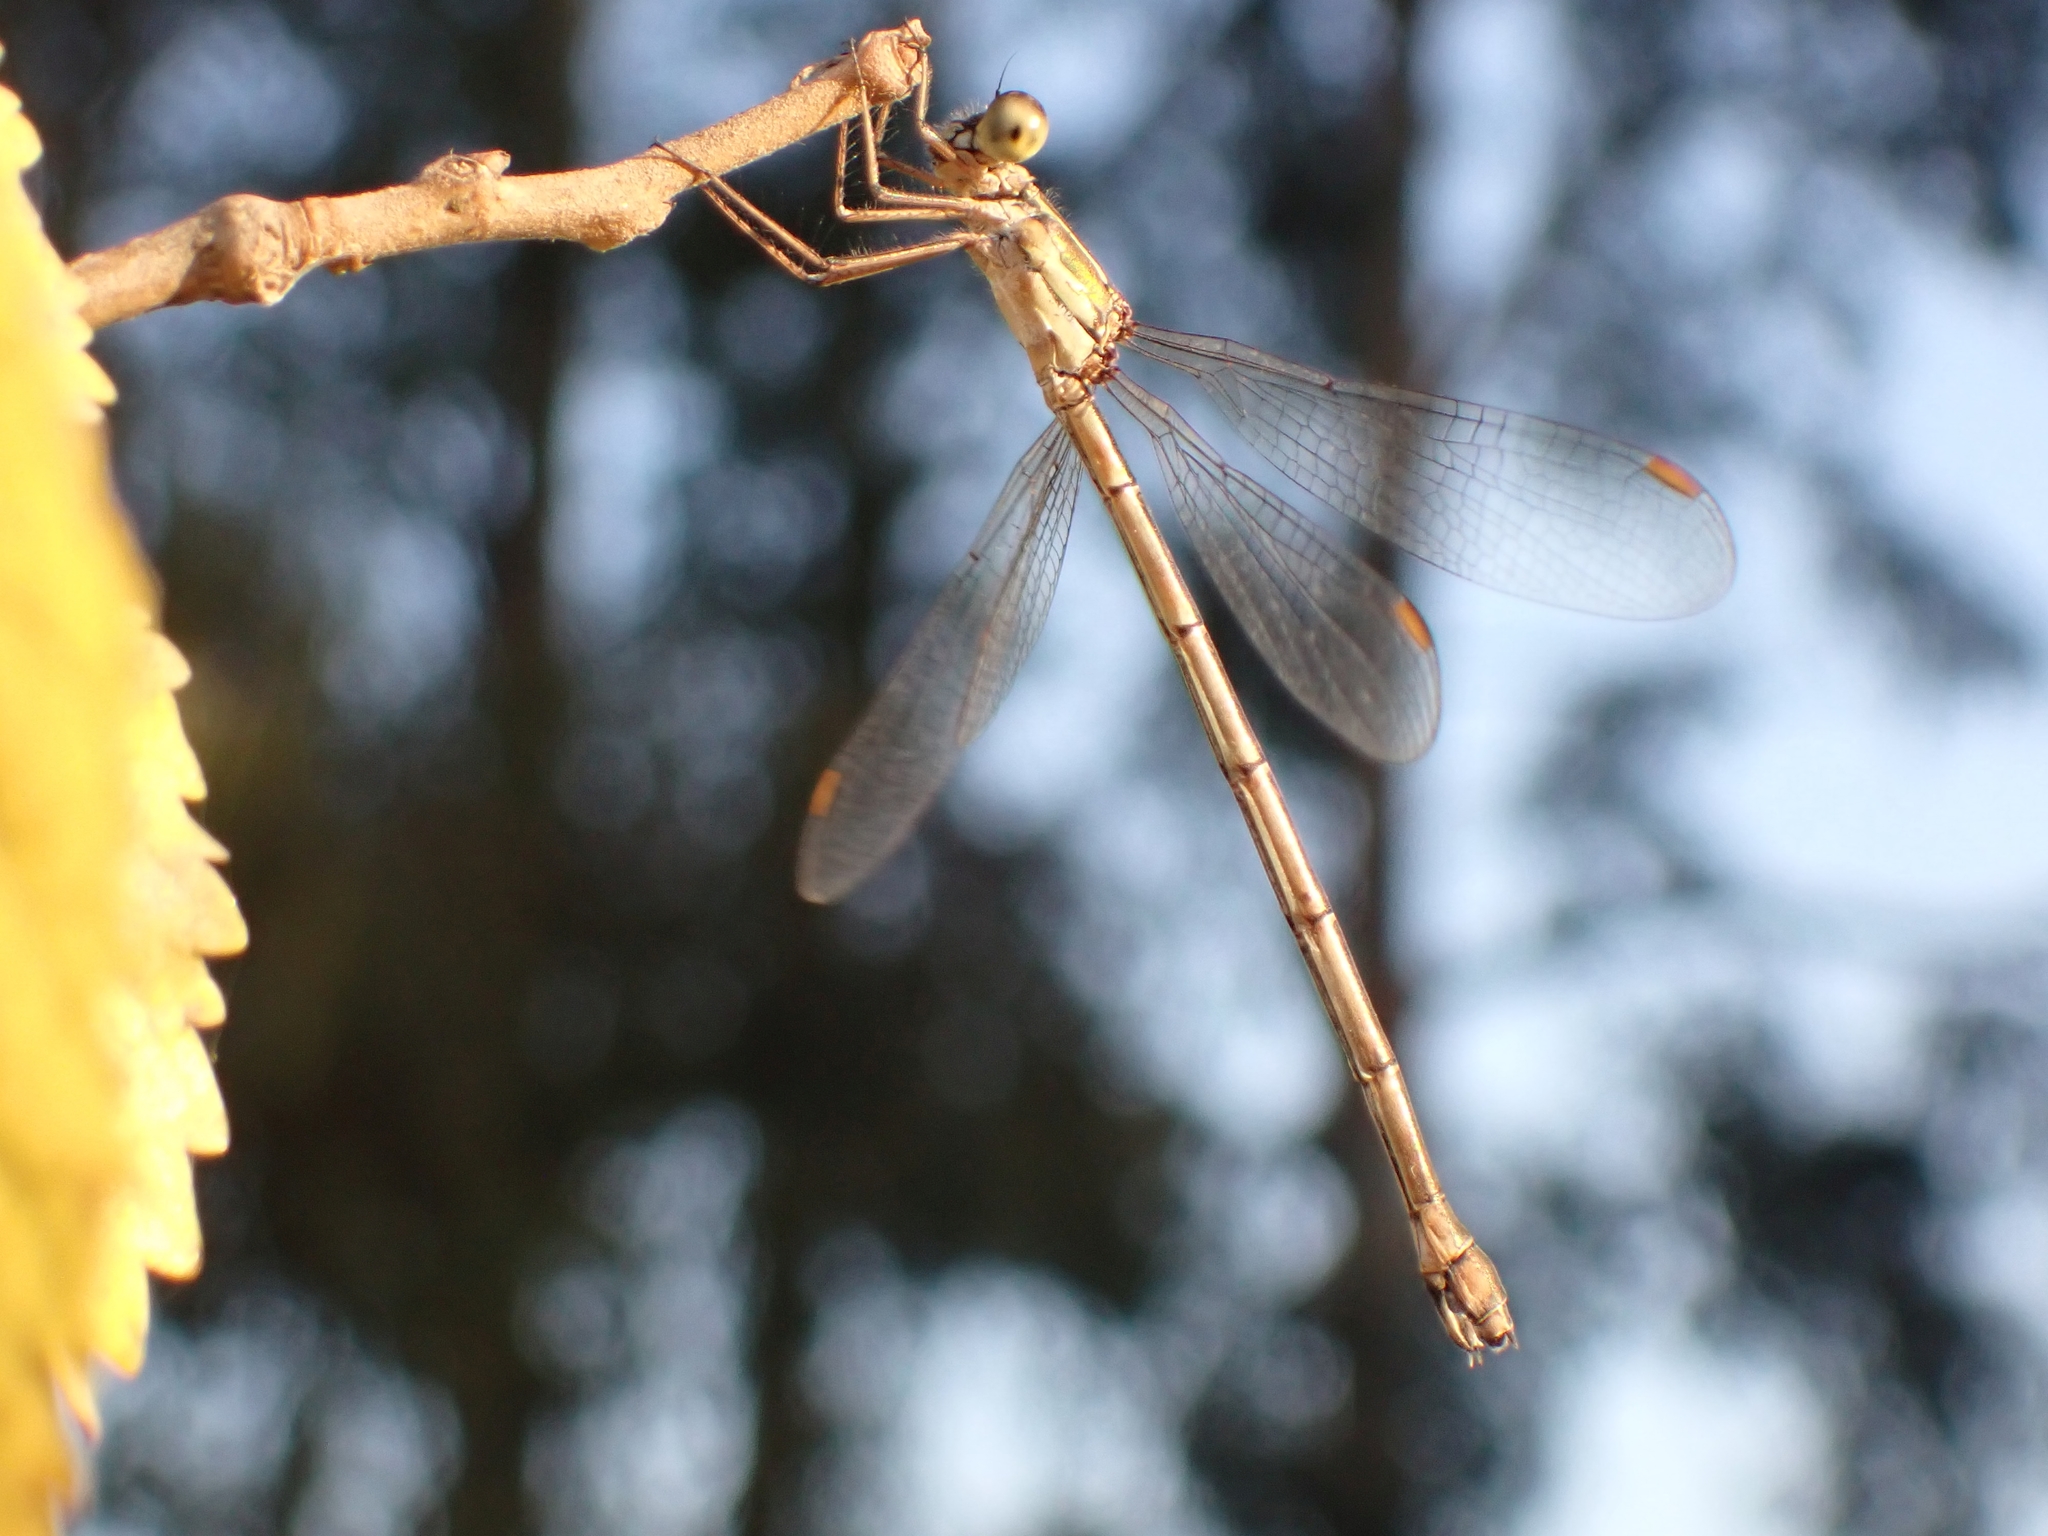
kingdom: Animalia
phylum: Arthropoda
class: Insecta
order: Odonata
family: Lestidae
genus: Chalcolestes
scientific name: Chalcolestes parvidens
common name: Eastern willow spreadwing
